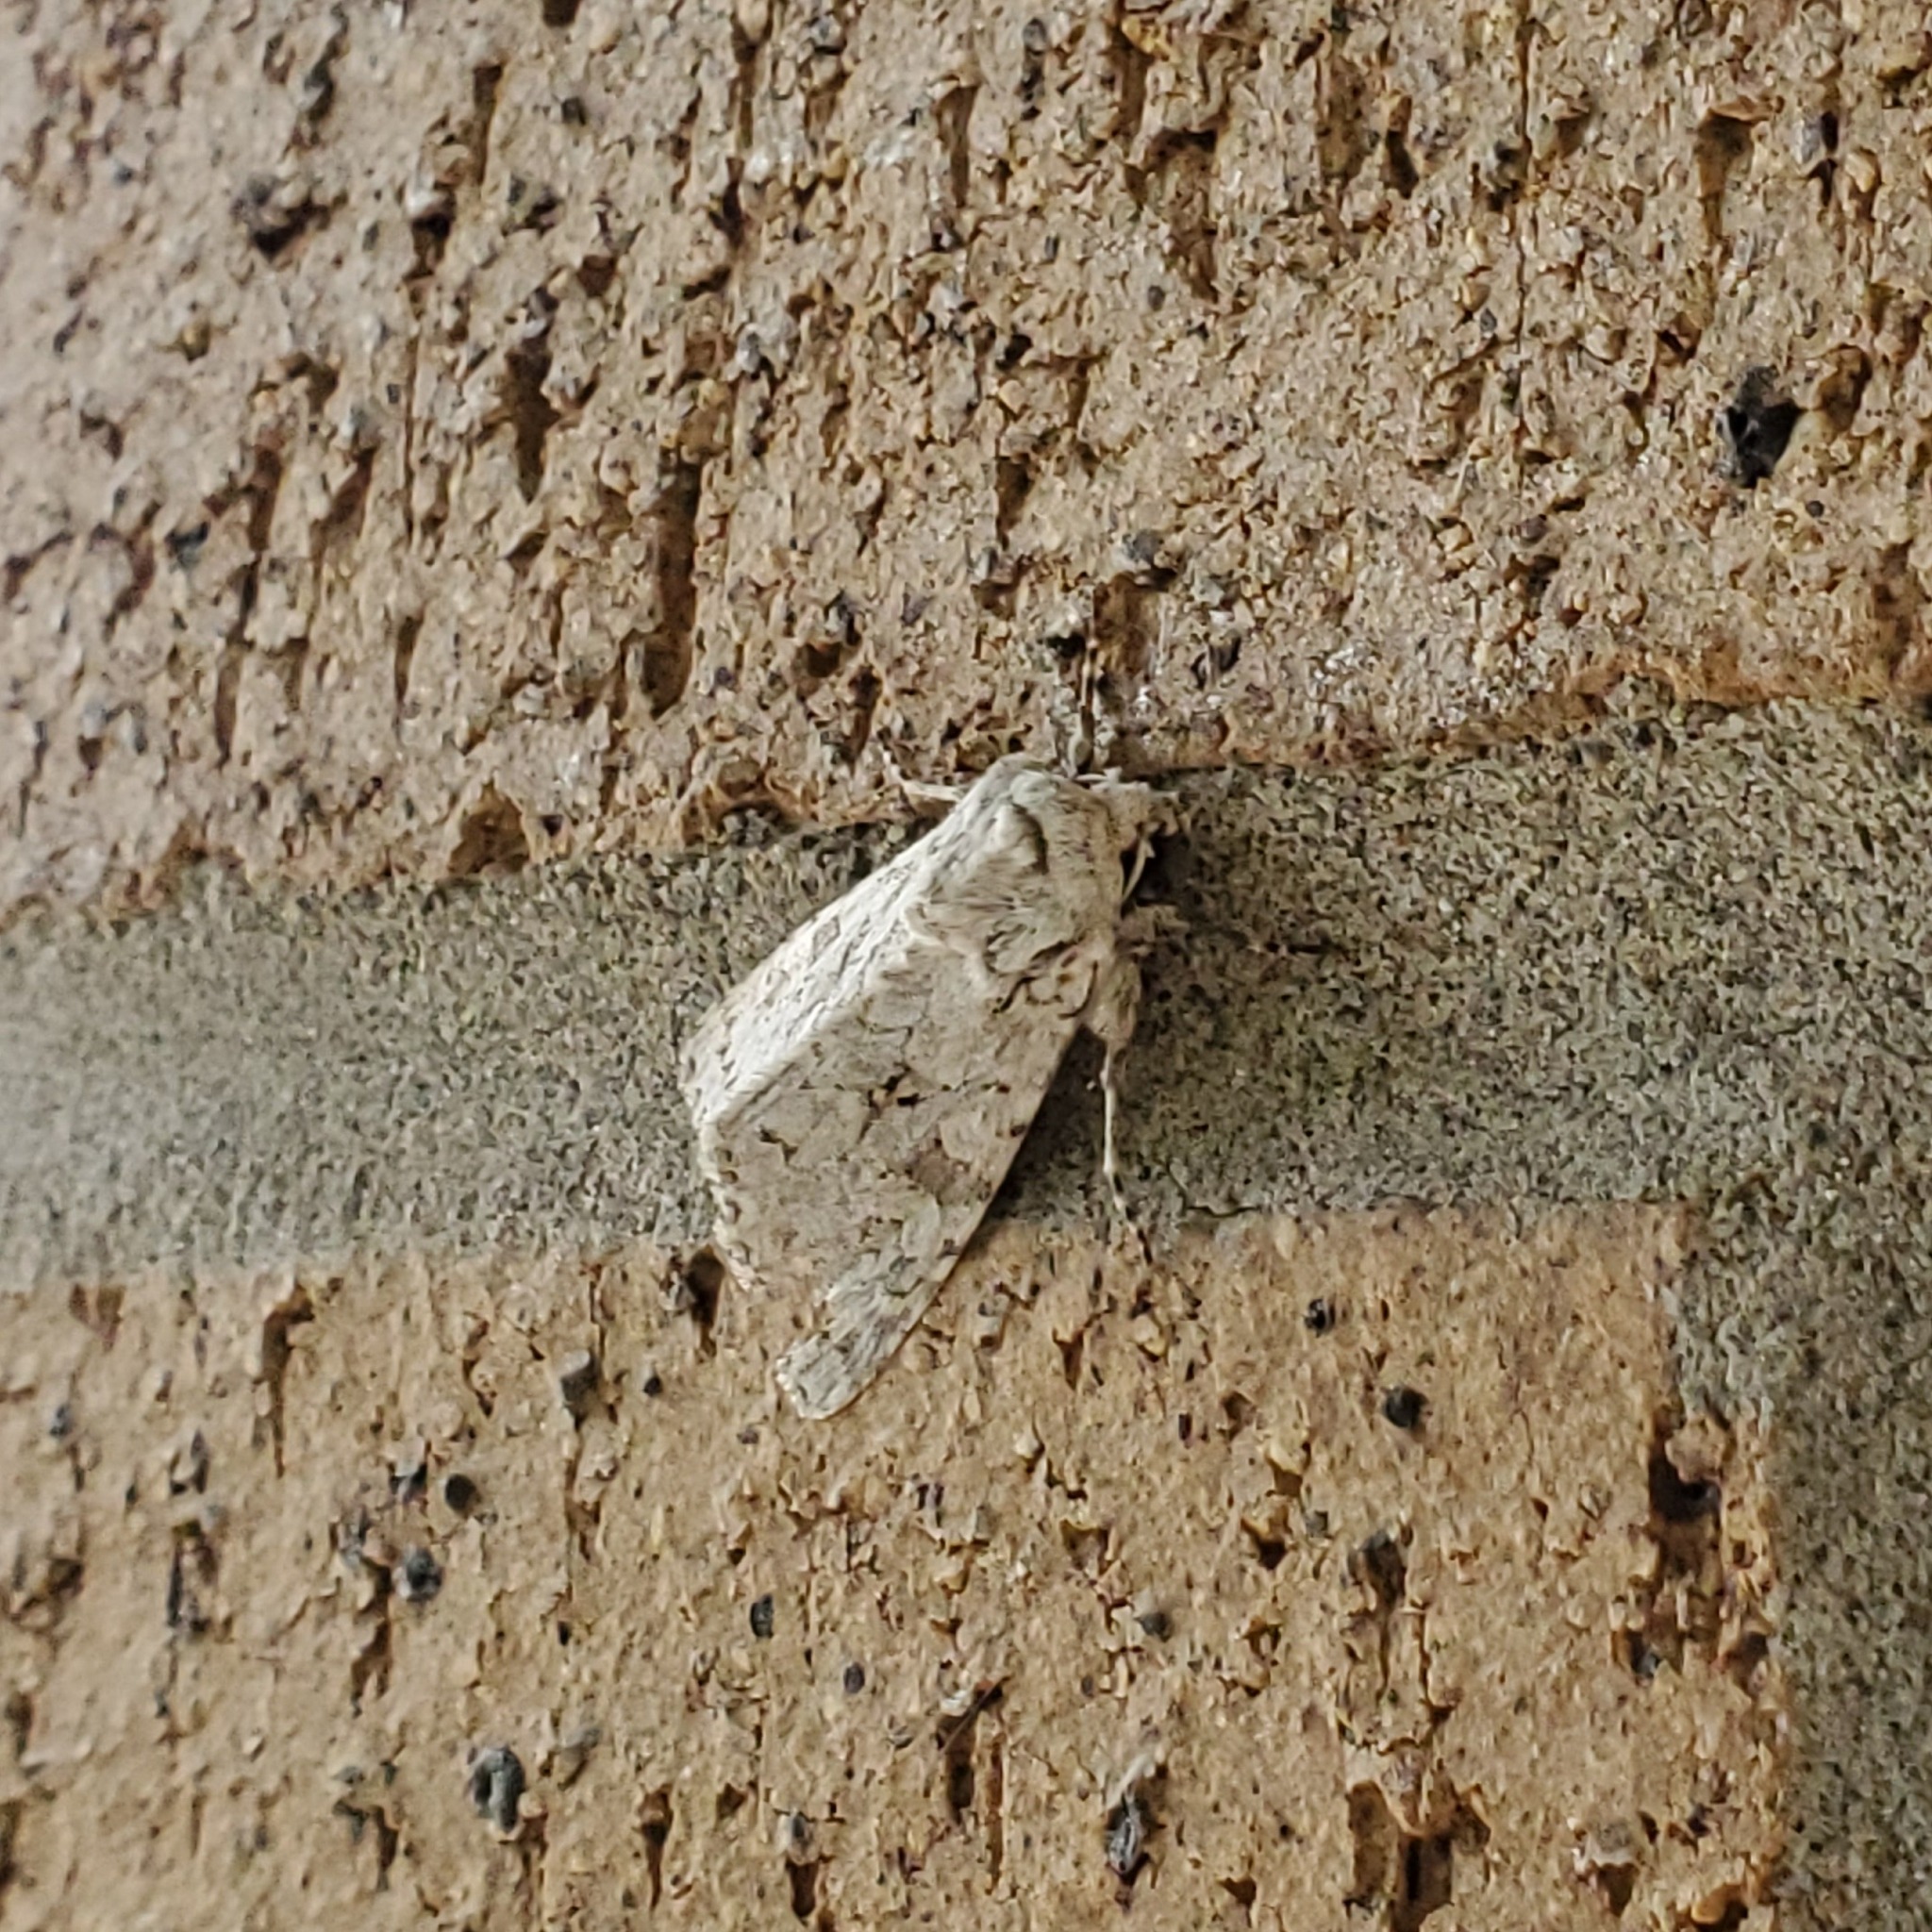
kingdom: Animalia
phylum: Arthropoda
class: Insecta
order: Lepidoptera
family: Noctuidae
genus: Psammopolia
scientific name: Psammopolia wyatti
